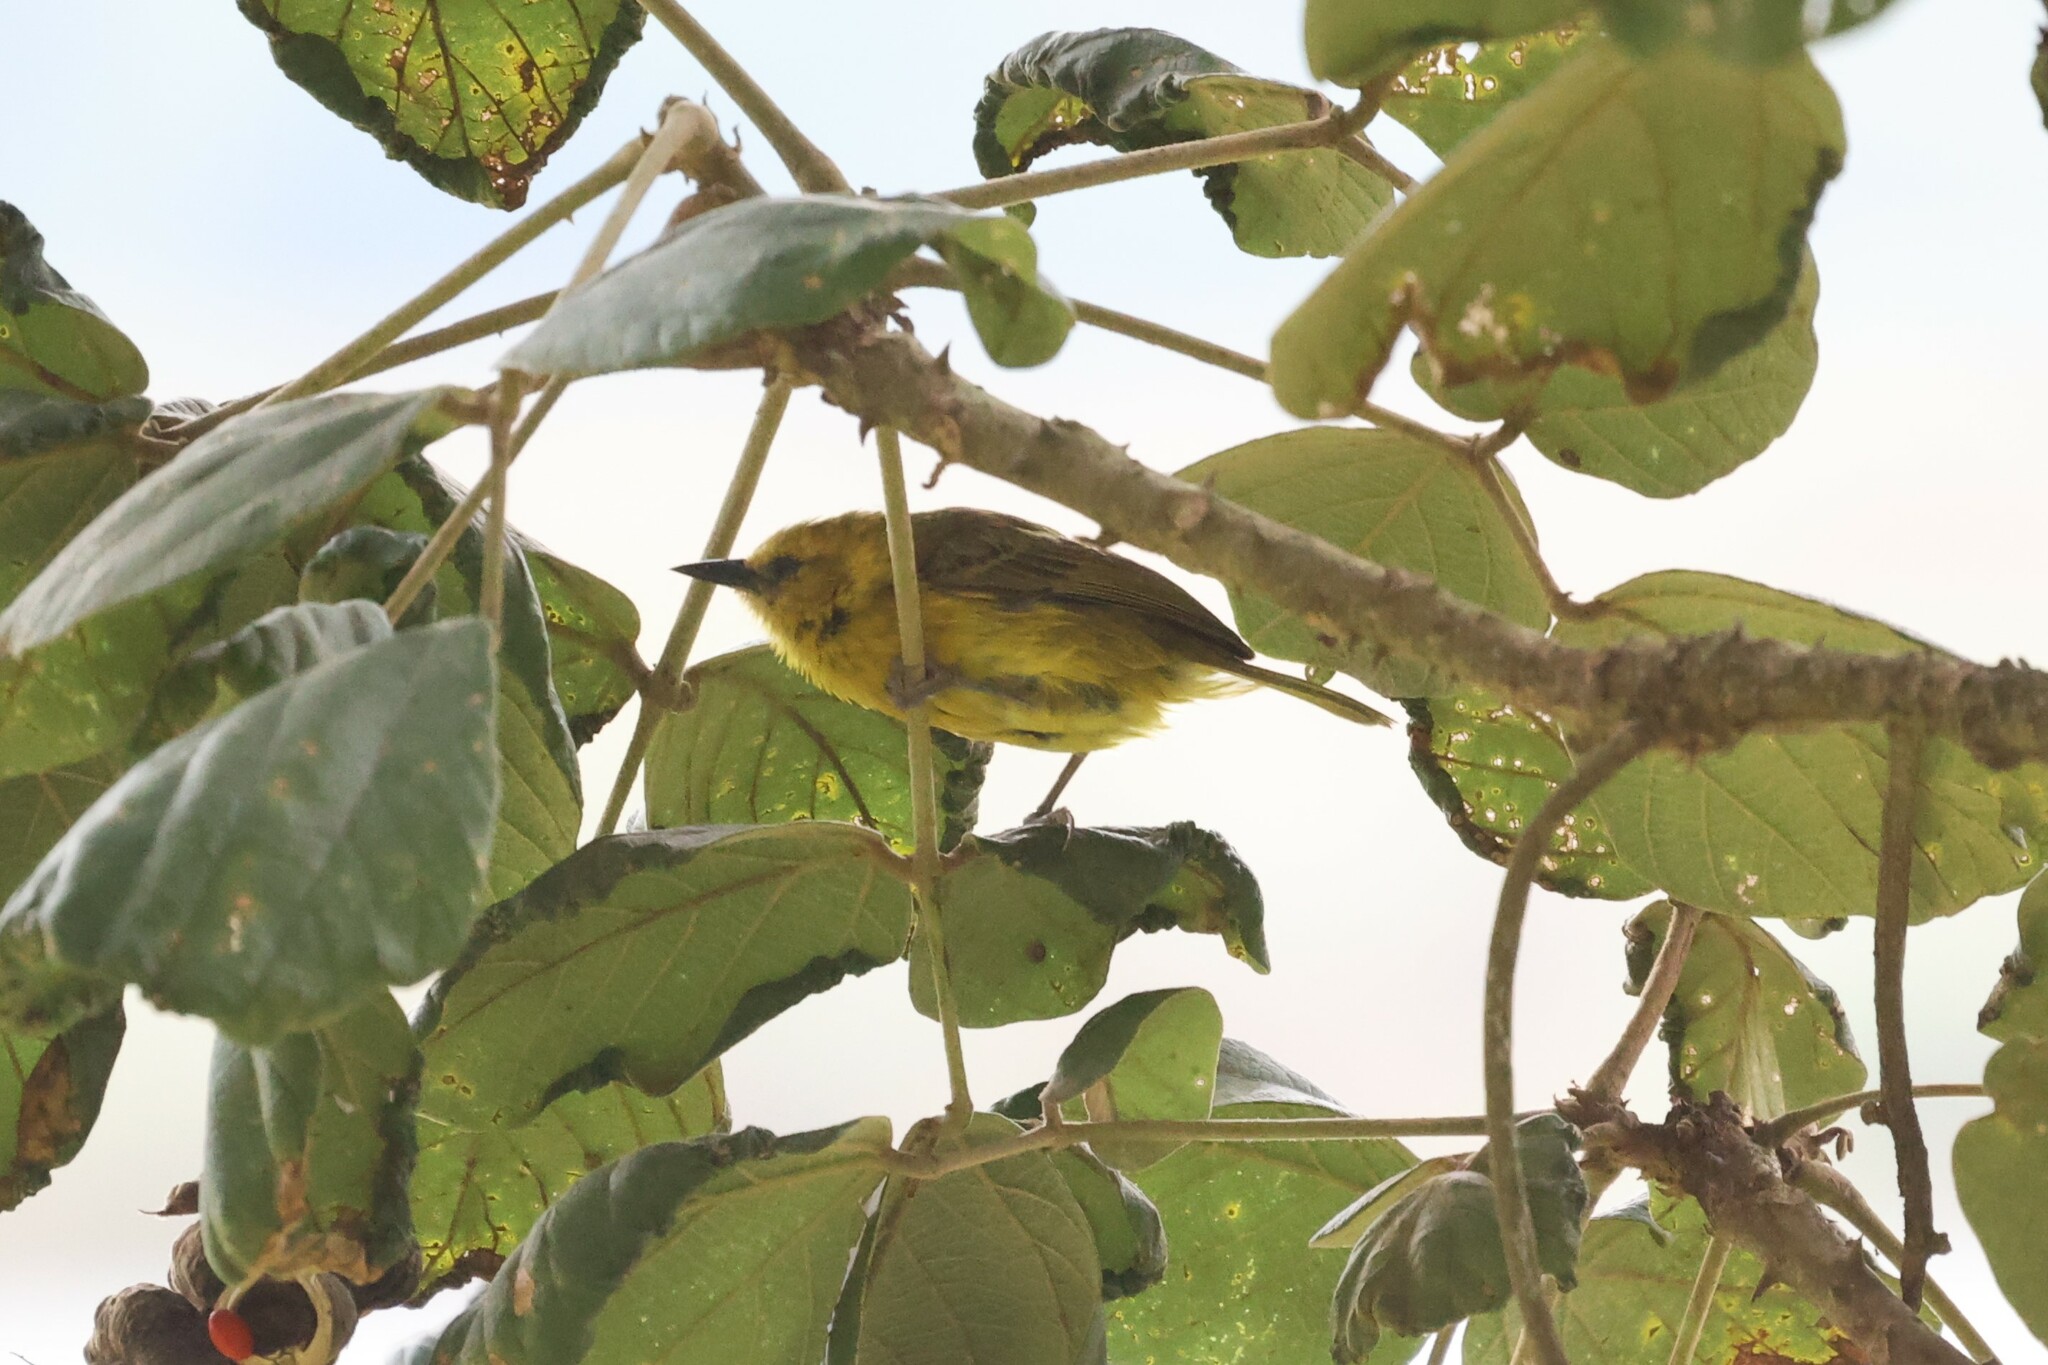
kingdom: Animalia
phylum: Chordata
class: Aves
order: Passeriformes
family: Ploceidae
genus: Ploceus
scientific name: Ploceus pelzelni
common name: Slender-billed weaver
